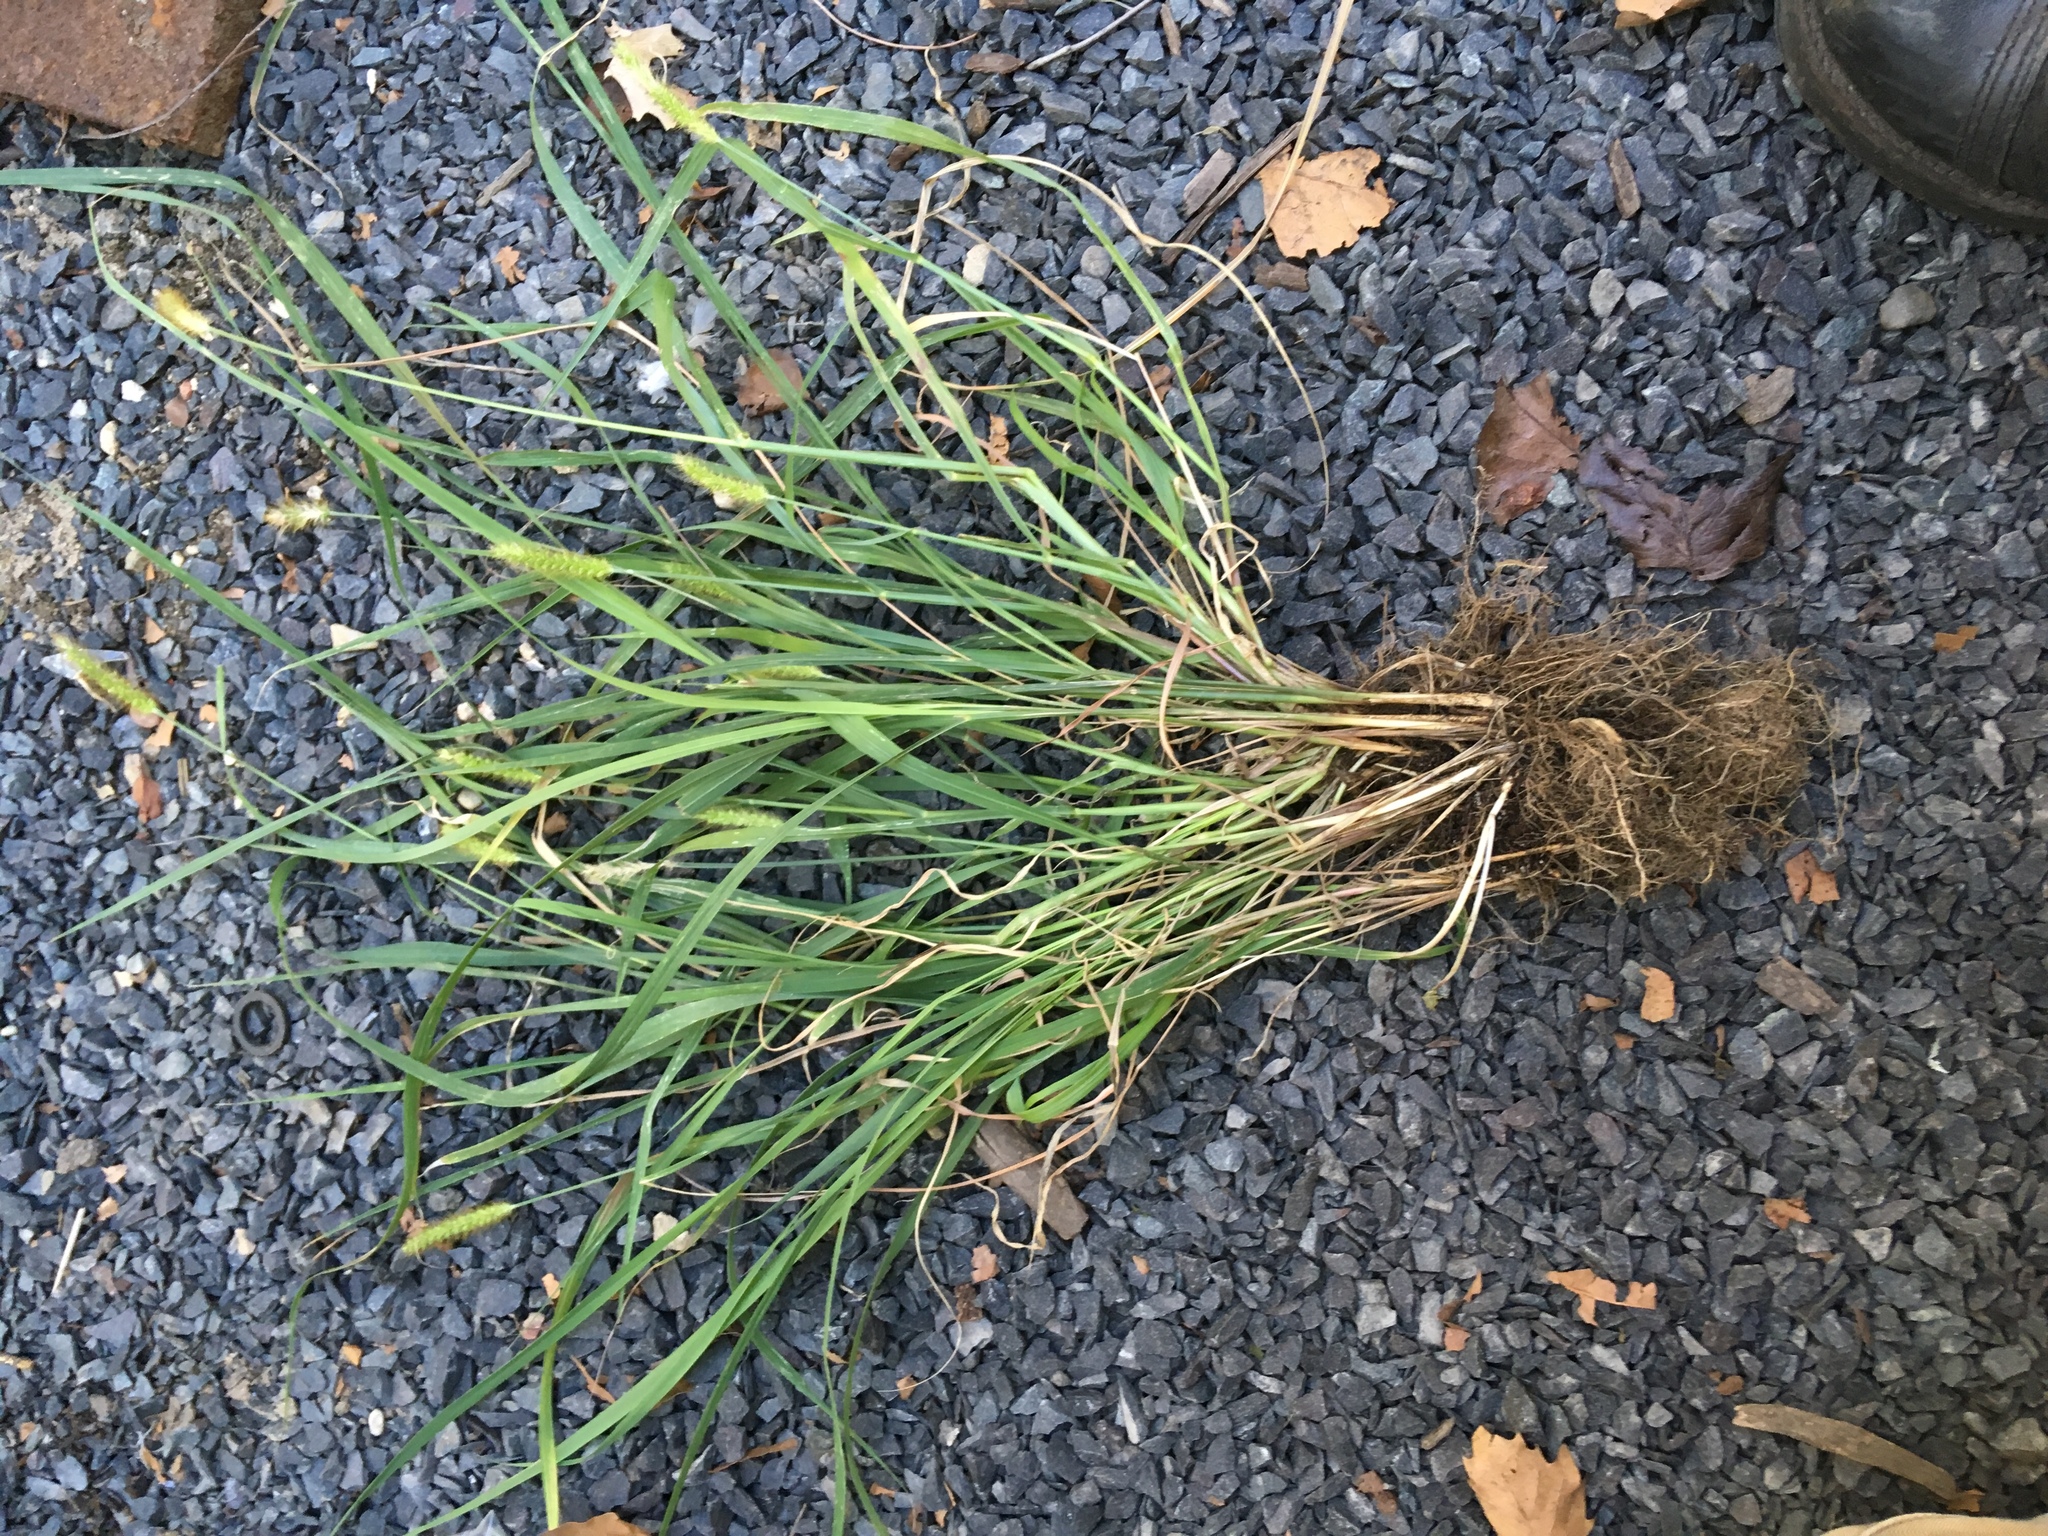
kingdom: Plantae
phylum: Tracheophyta
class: Liliopsida
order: Poales
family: Poaceae
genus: Setaria
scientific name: Setaria parviflora
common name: Knotroot bristle-grass
